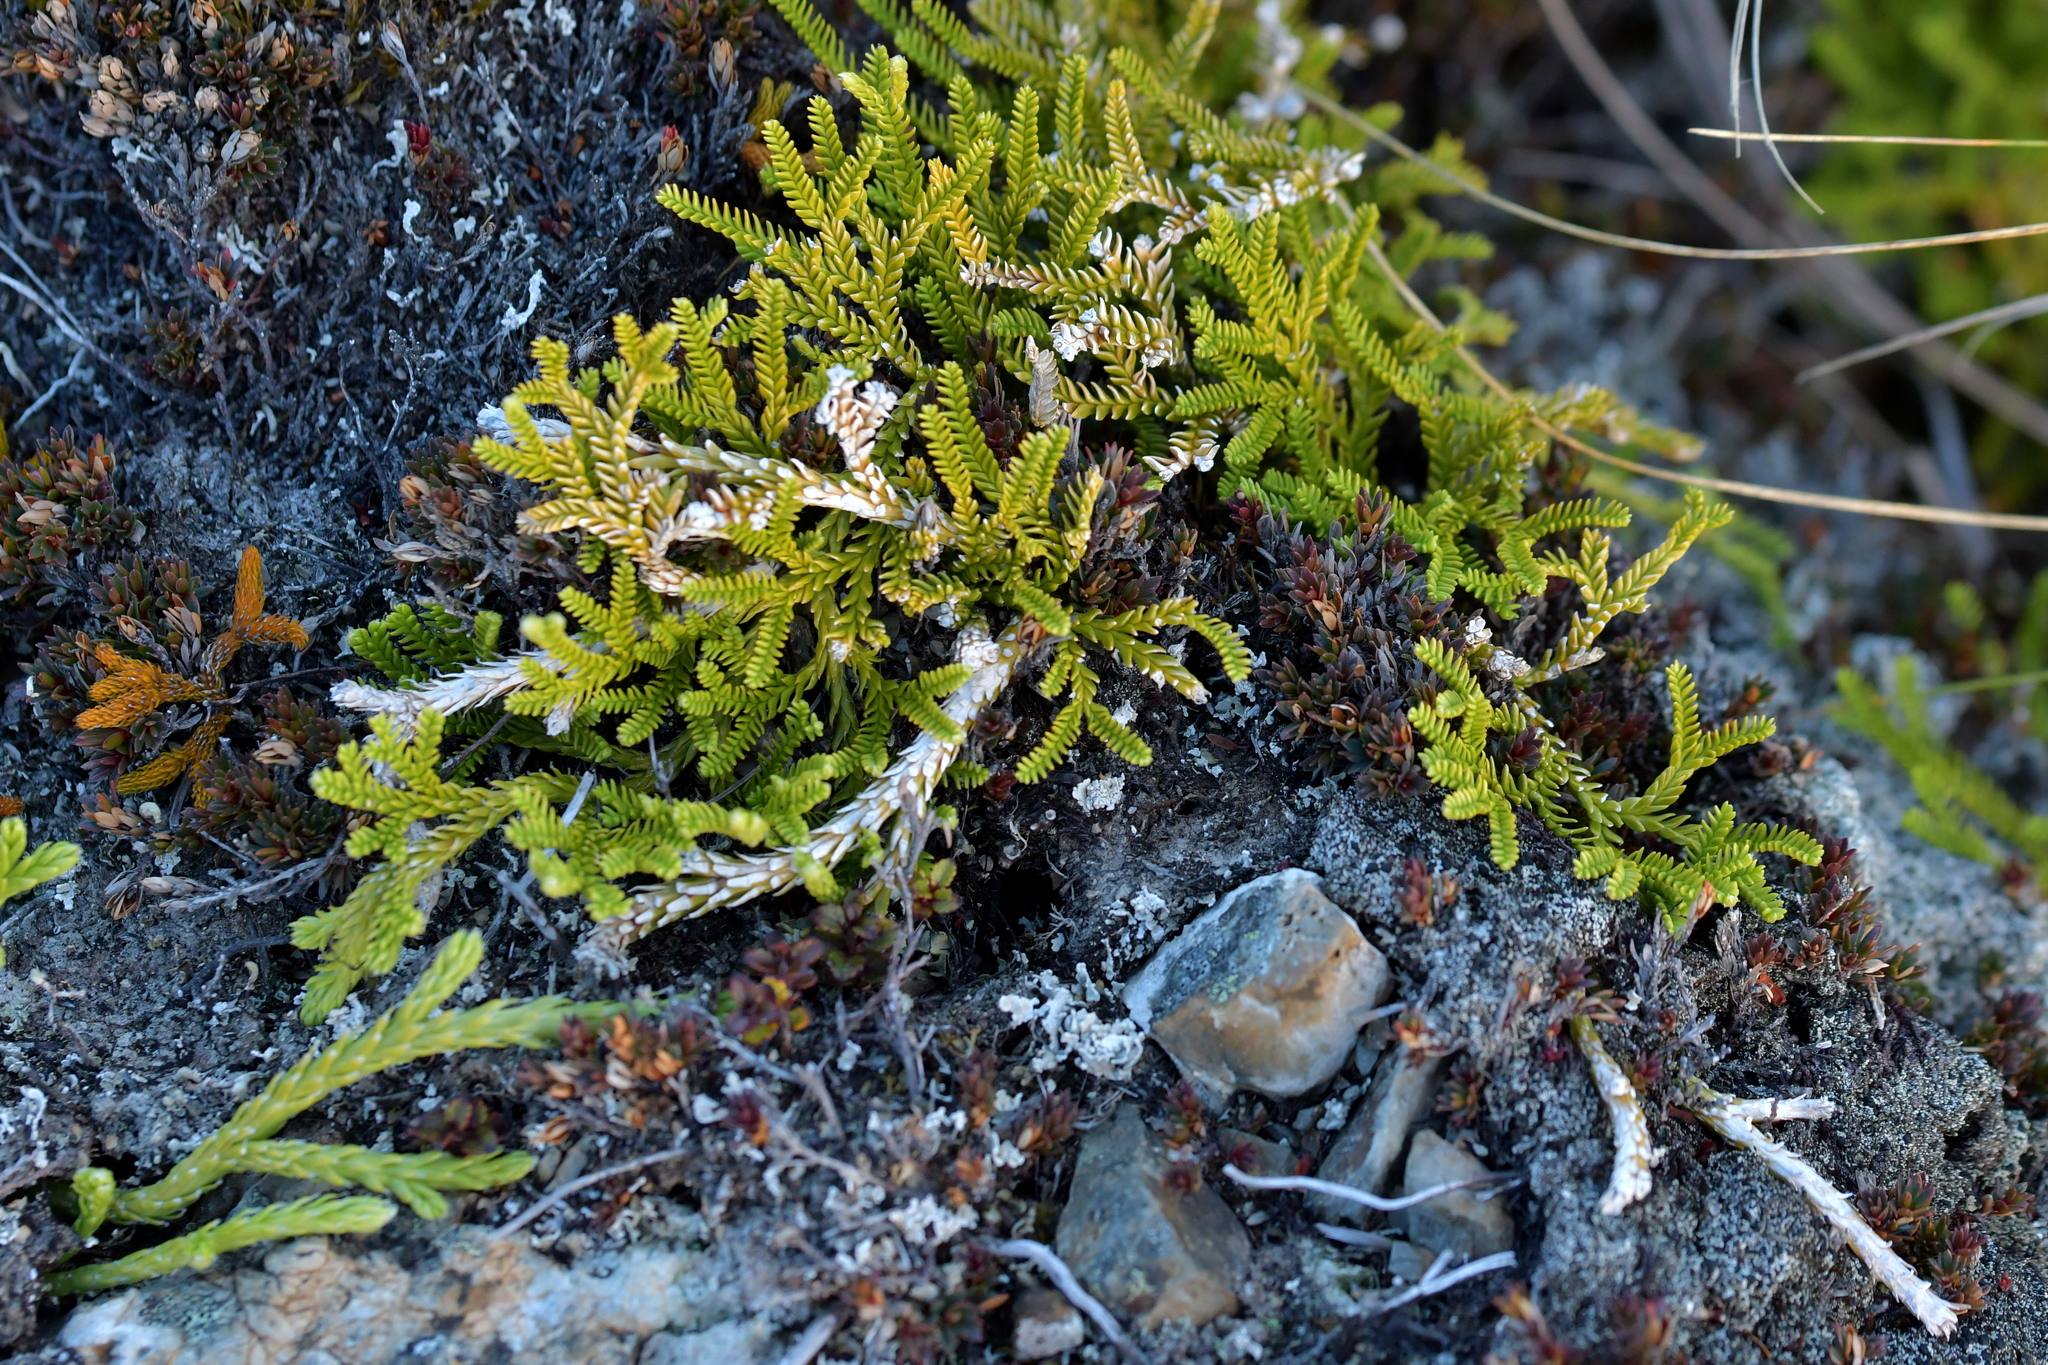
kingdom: Plantae
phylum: Tracheophyta
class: Lycopodiopsida
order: Lycopodiales
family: Lycopodiaceae
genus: Diphasium
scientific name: Diphasium scariosum
